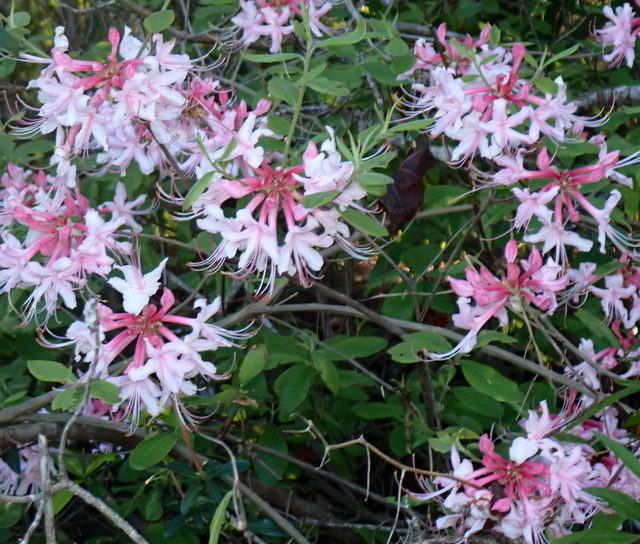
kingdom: Plantae
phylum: Tracheophyta
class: Magnoliopsida
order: Ericales
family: Ericaceae
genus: Rhododendron
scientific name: Rhododendron canescens
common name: Mountain azalea
